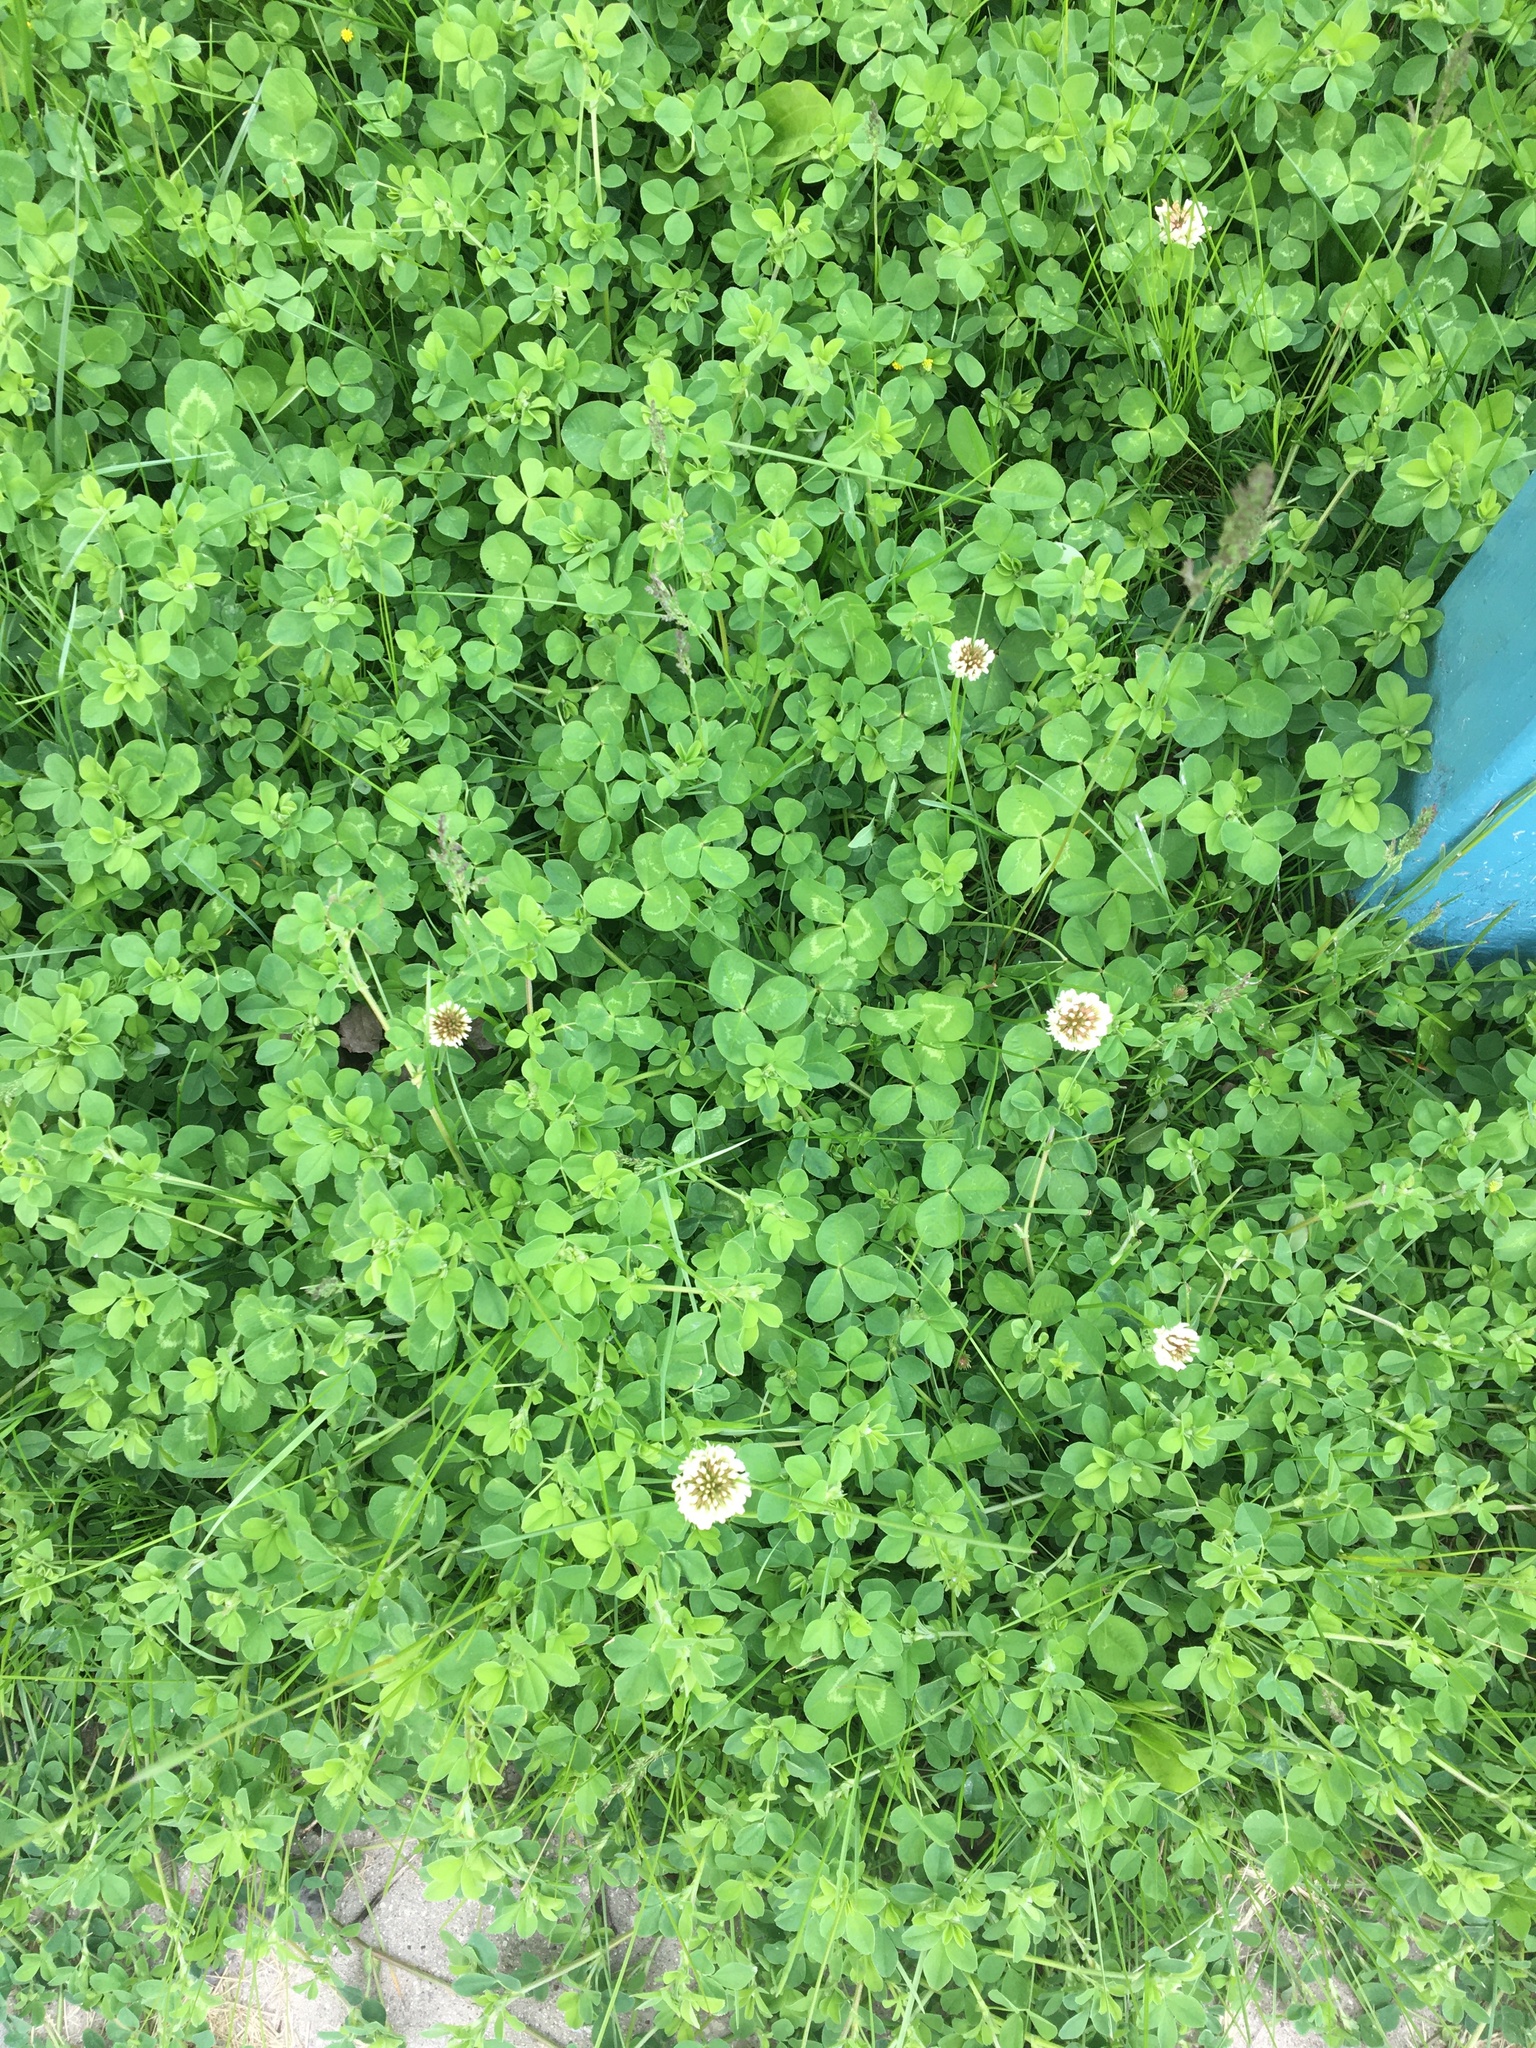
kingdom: Plantae
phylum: Tracheophyta
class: Magnoliopsida
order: Fabales
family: Fabaceae
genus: Trifolium
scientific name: Trifolium repens
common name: White clover
